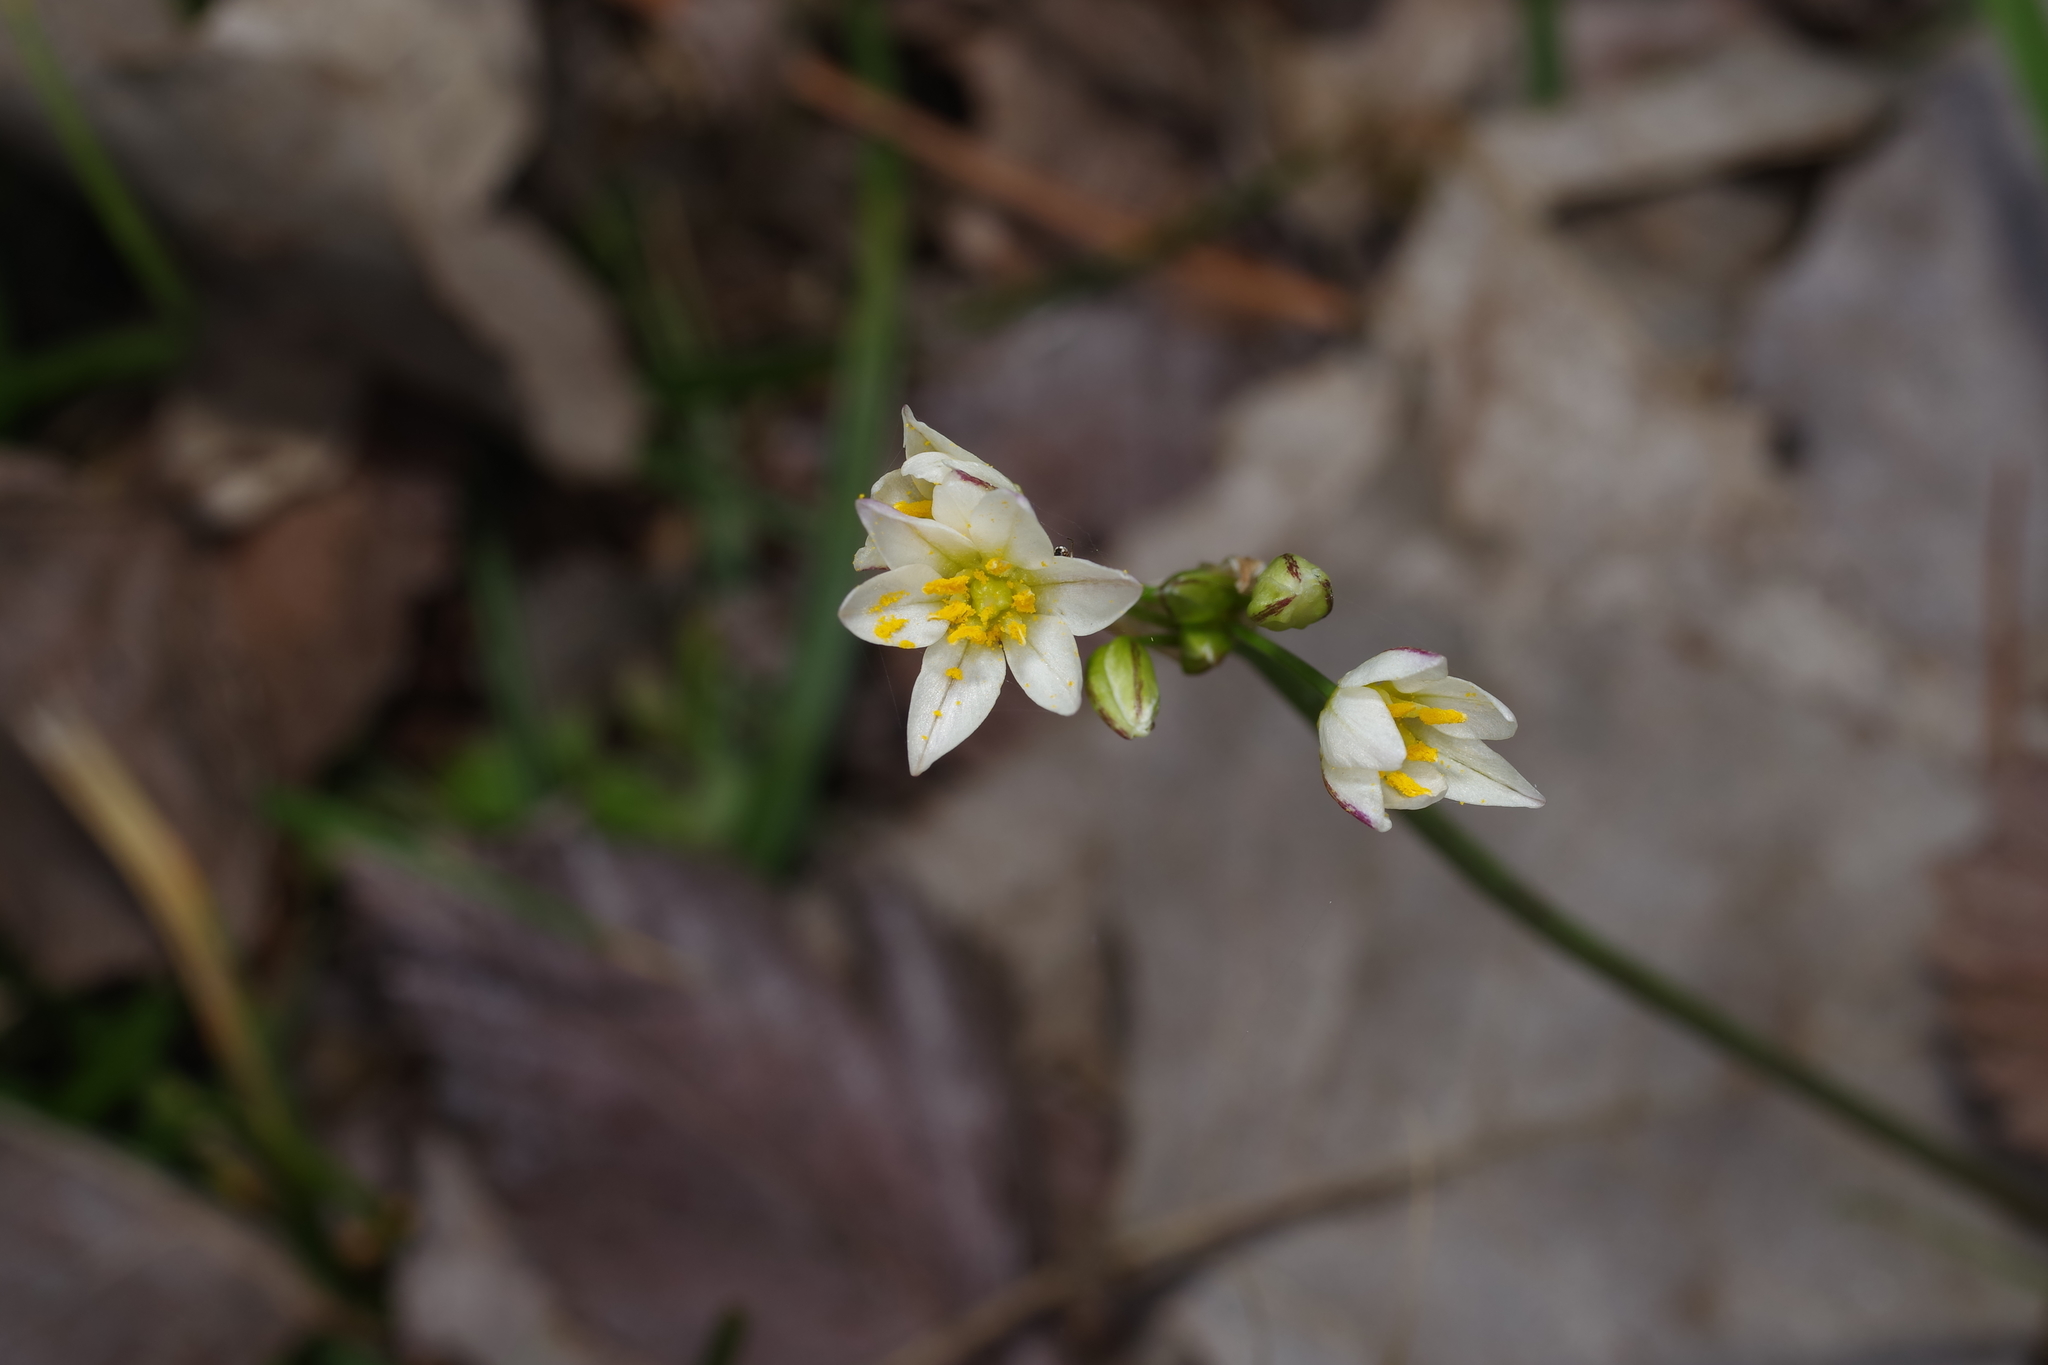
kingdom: Plantae
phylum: Tracheophyta
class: Liliopsida
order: Asparagales
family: Amaryllidaceae
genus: Nothoscordum
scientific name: Nothoscordum bivalve
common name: Crow-poison
